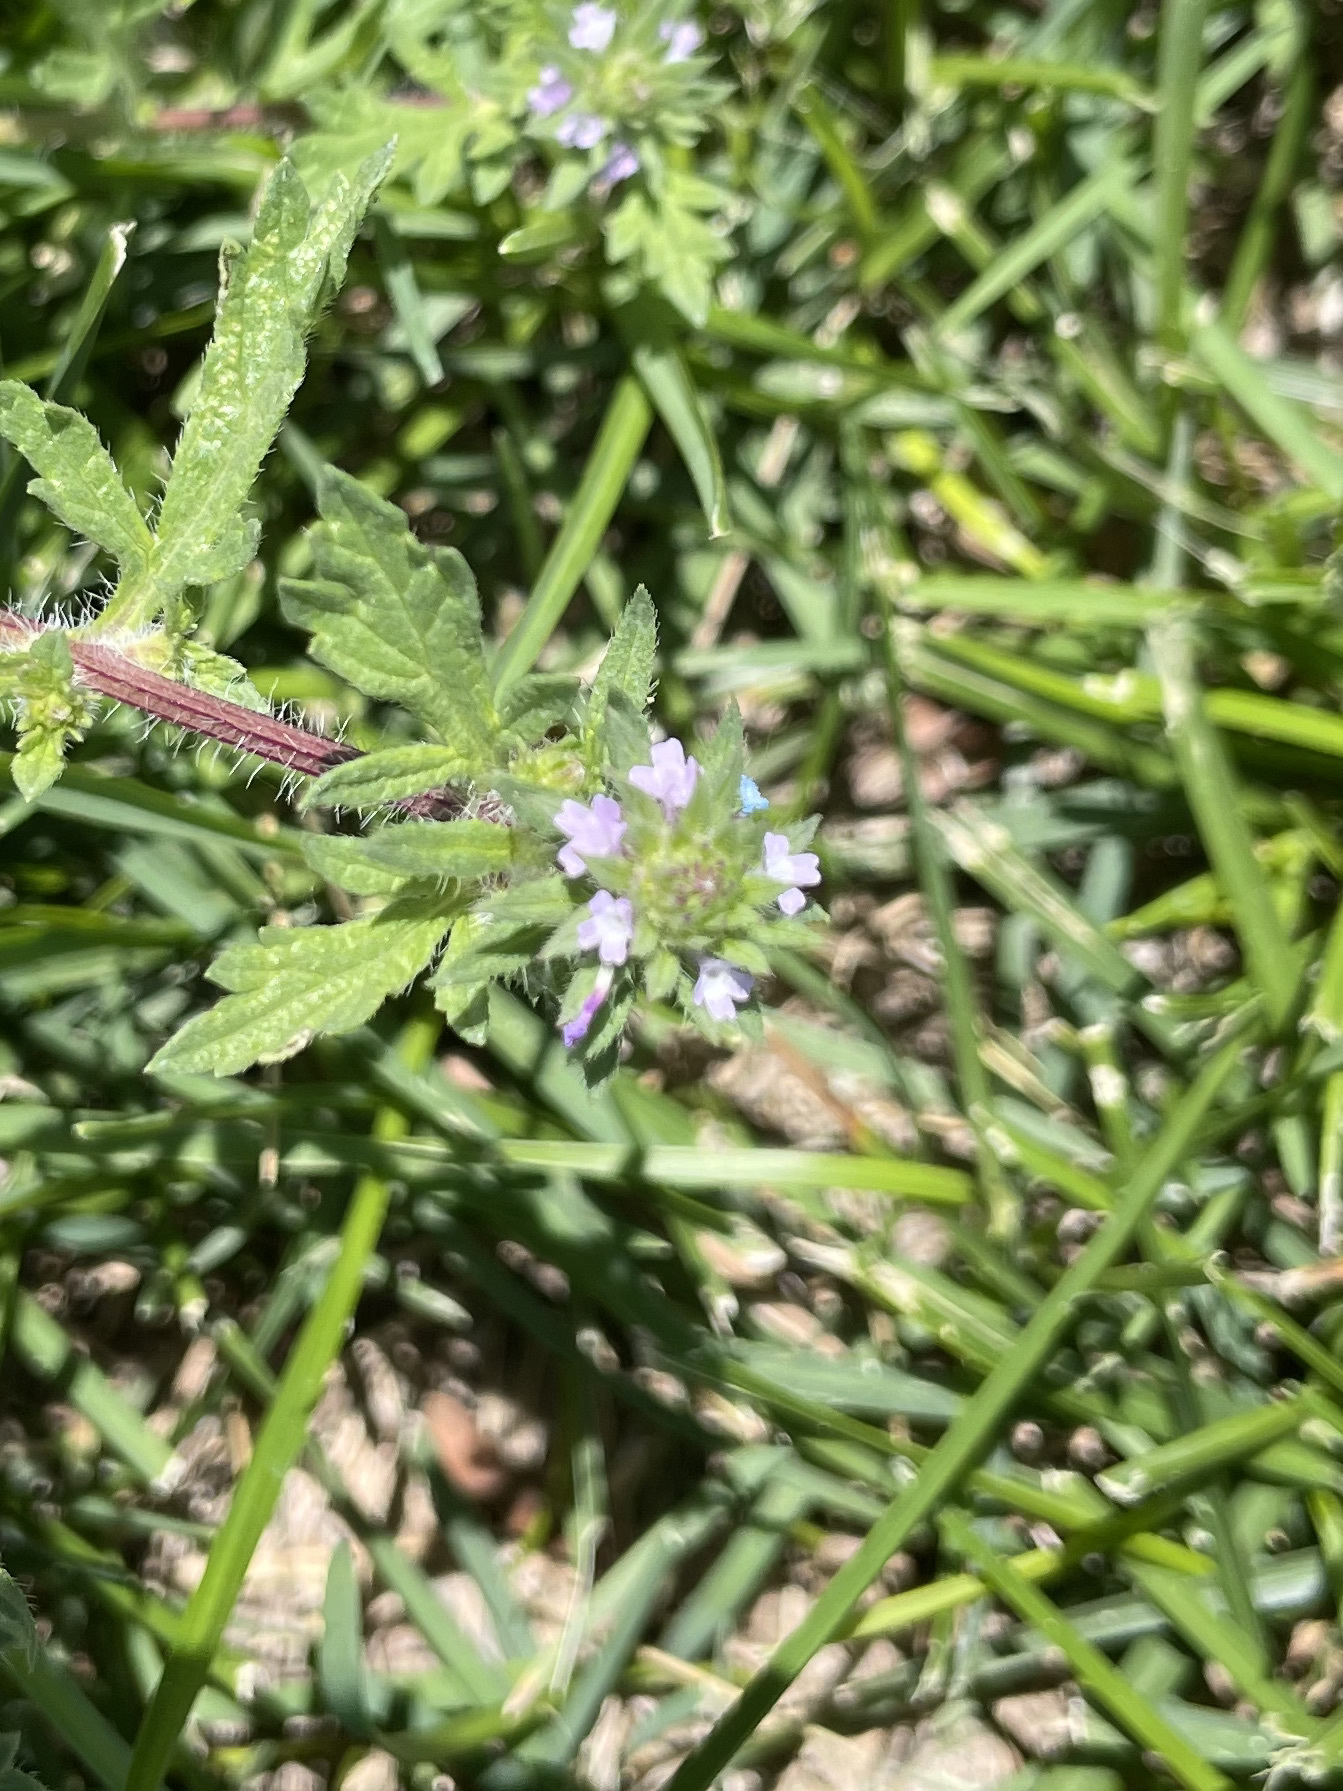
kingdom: Plantae
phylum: Tracheophyta
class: Magnoliopsida
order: Lamiales
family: Verbenaceae
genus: Verbena
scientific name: Verbena bracteata
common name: Bracted vervain
